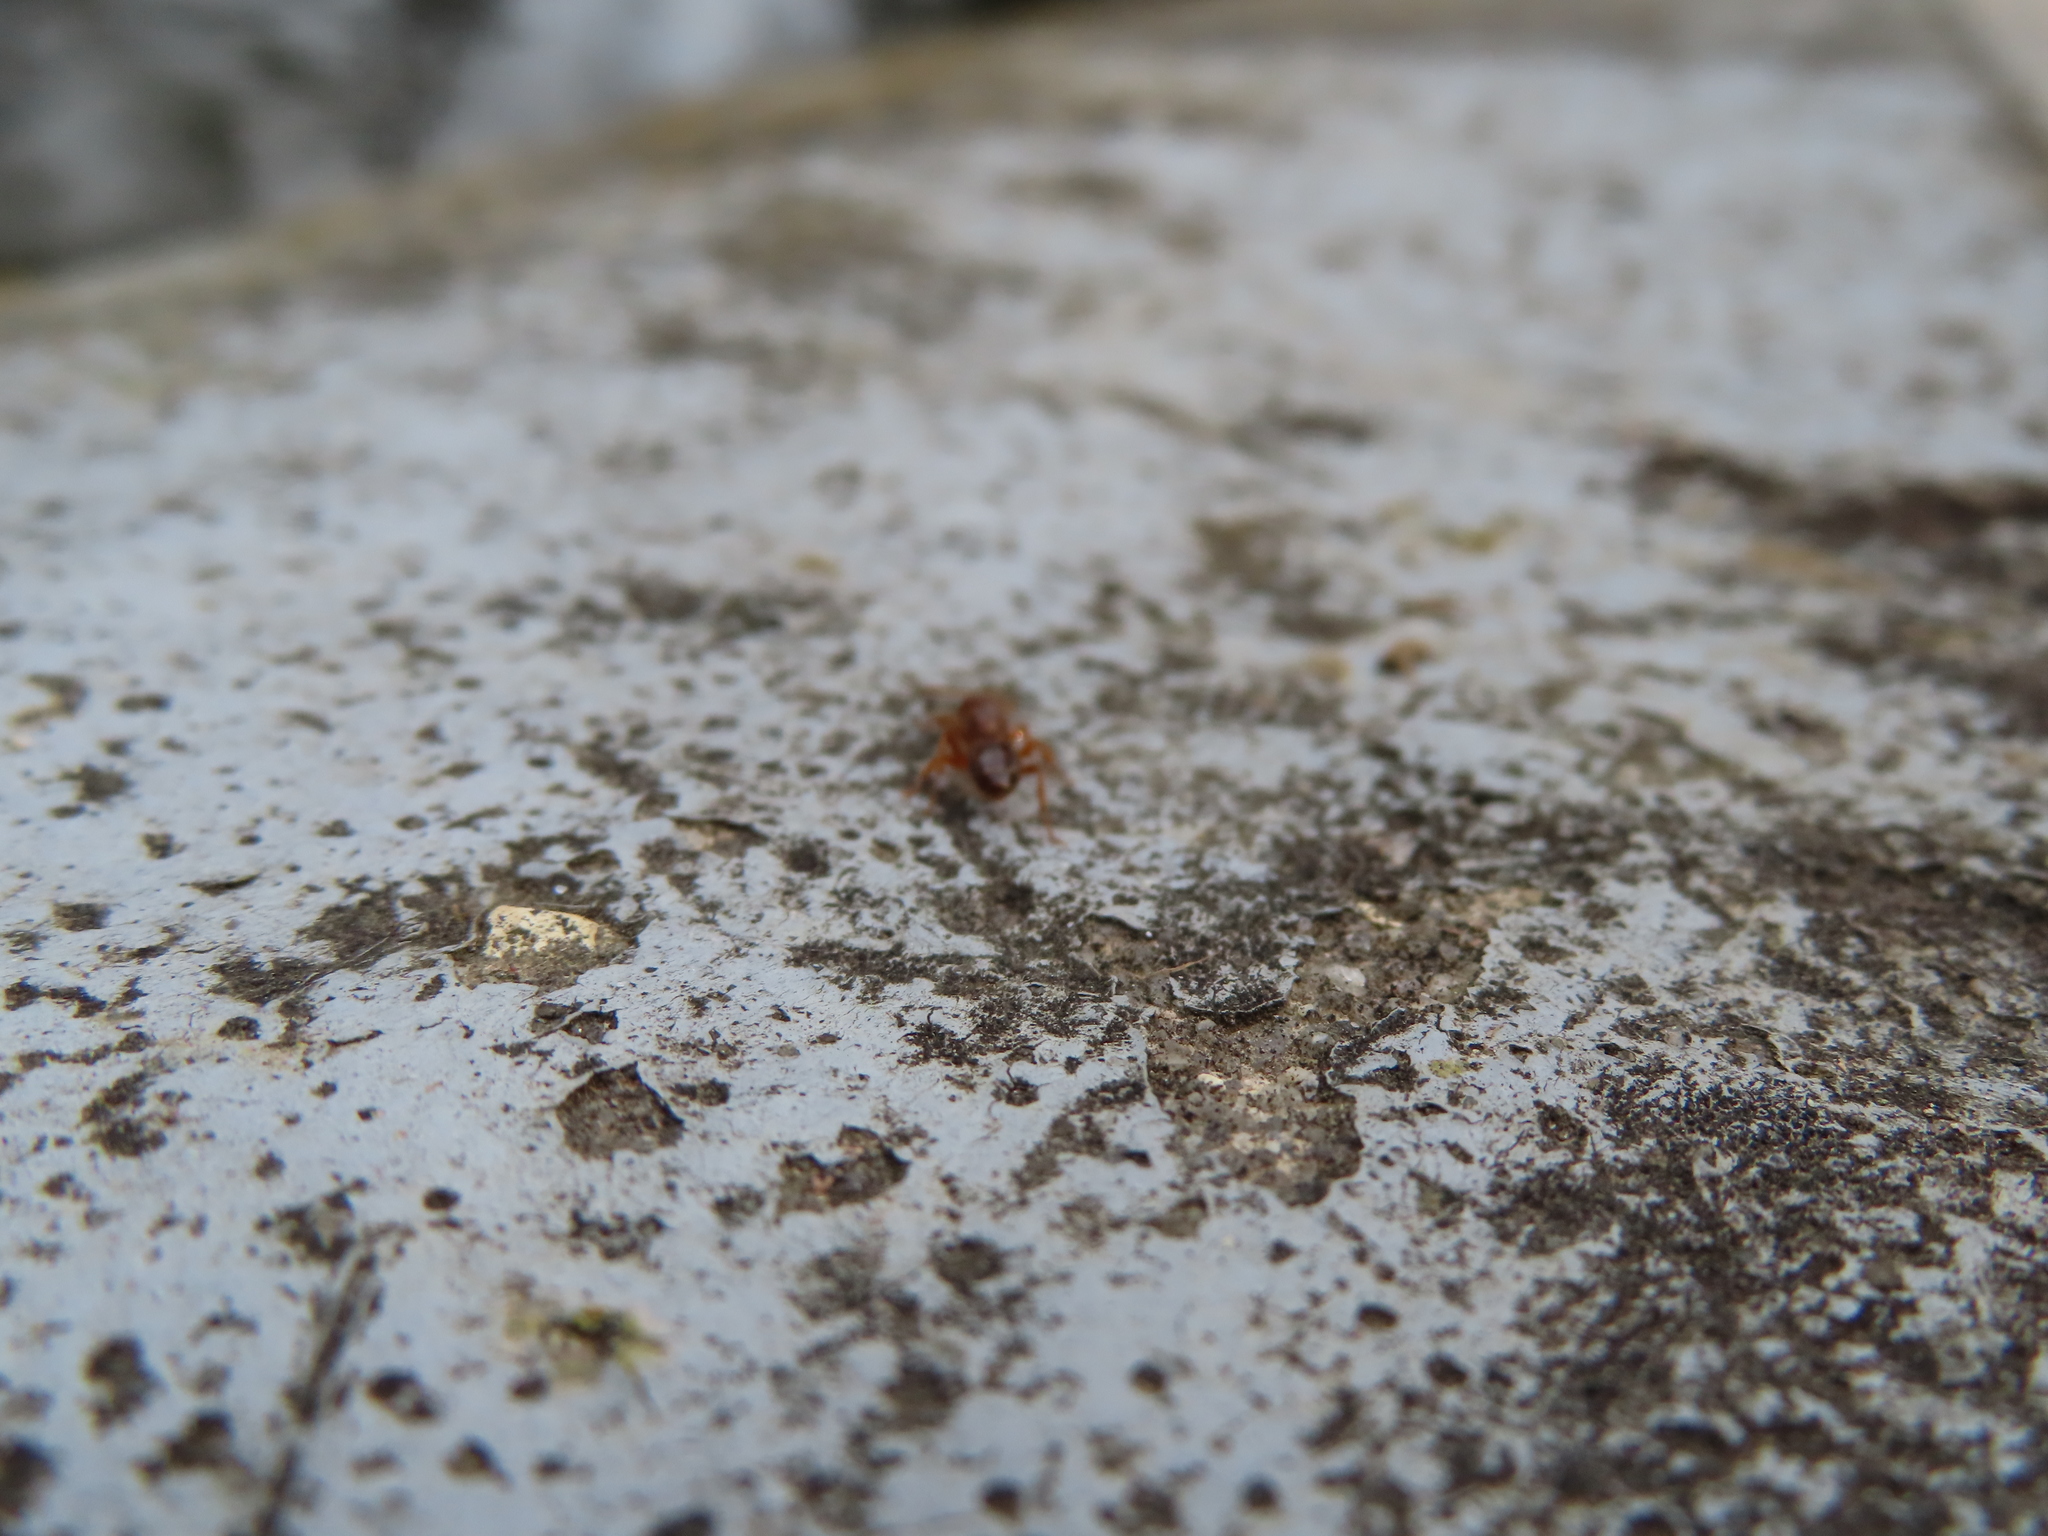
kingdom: Animalia
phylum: Arthropoda
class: Insecta
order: Hymenoptera
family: Formicidae
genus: Lasius
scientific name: Lasius claviger
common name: Common citronella ant
